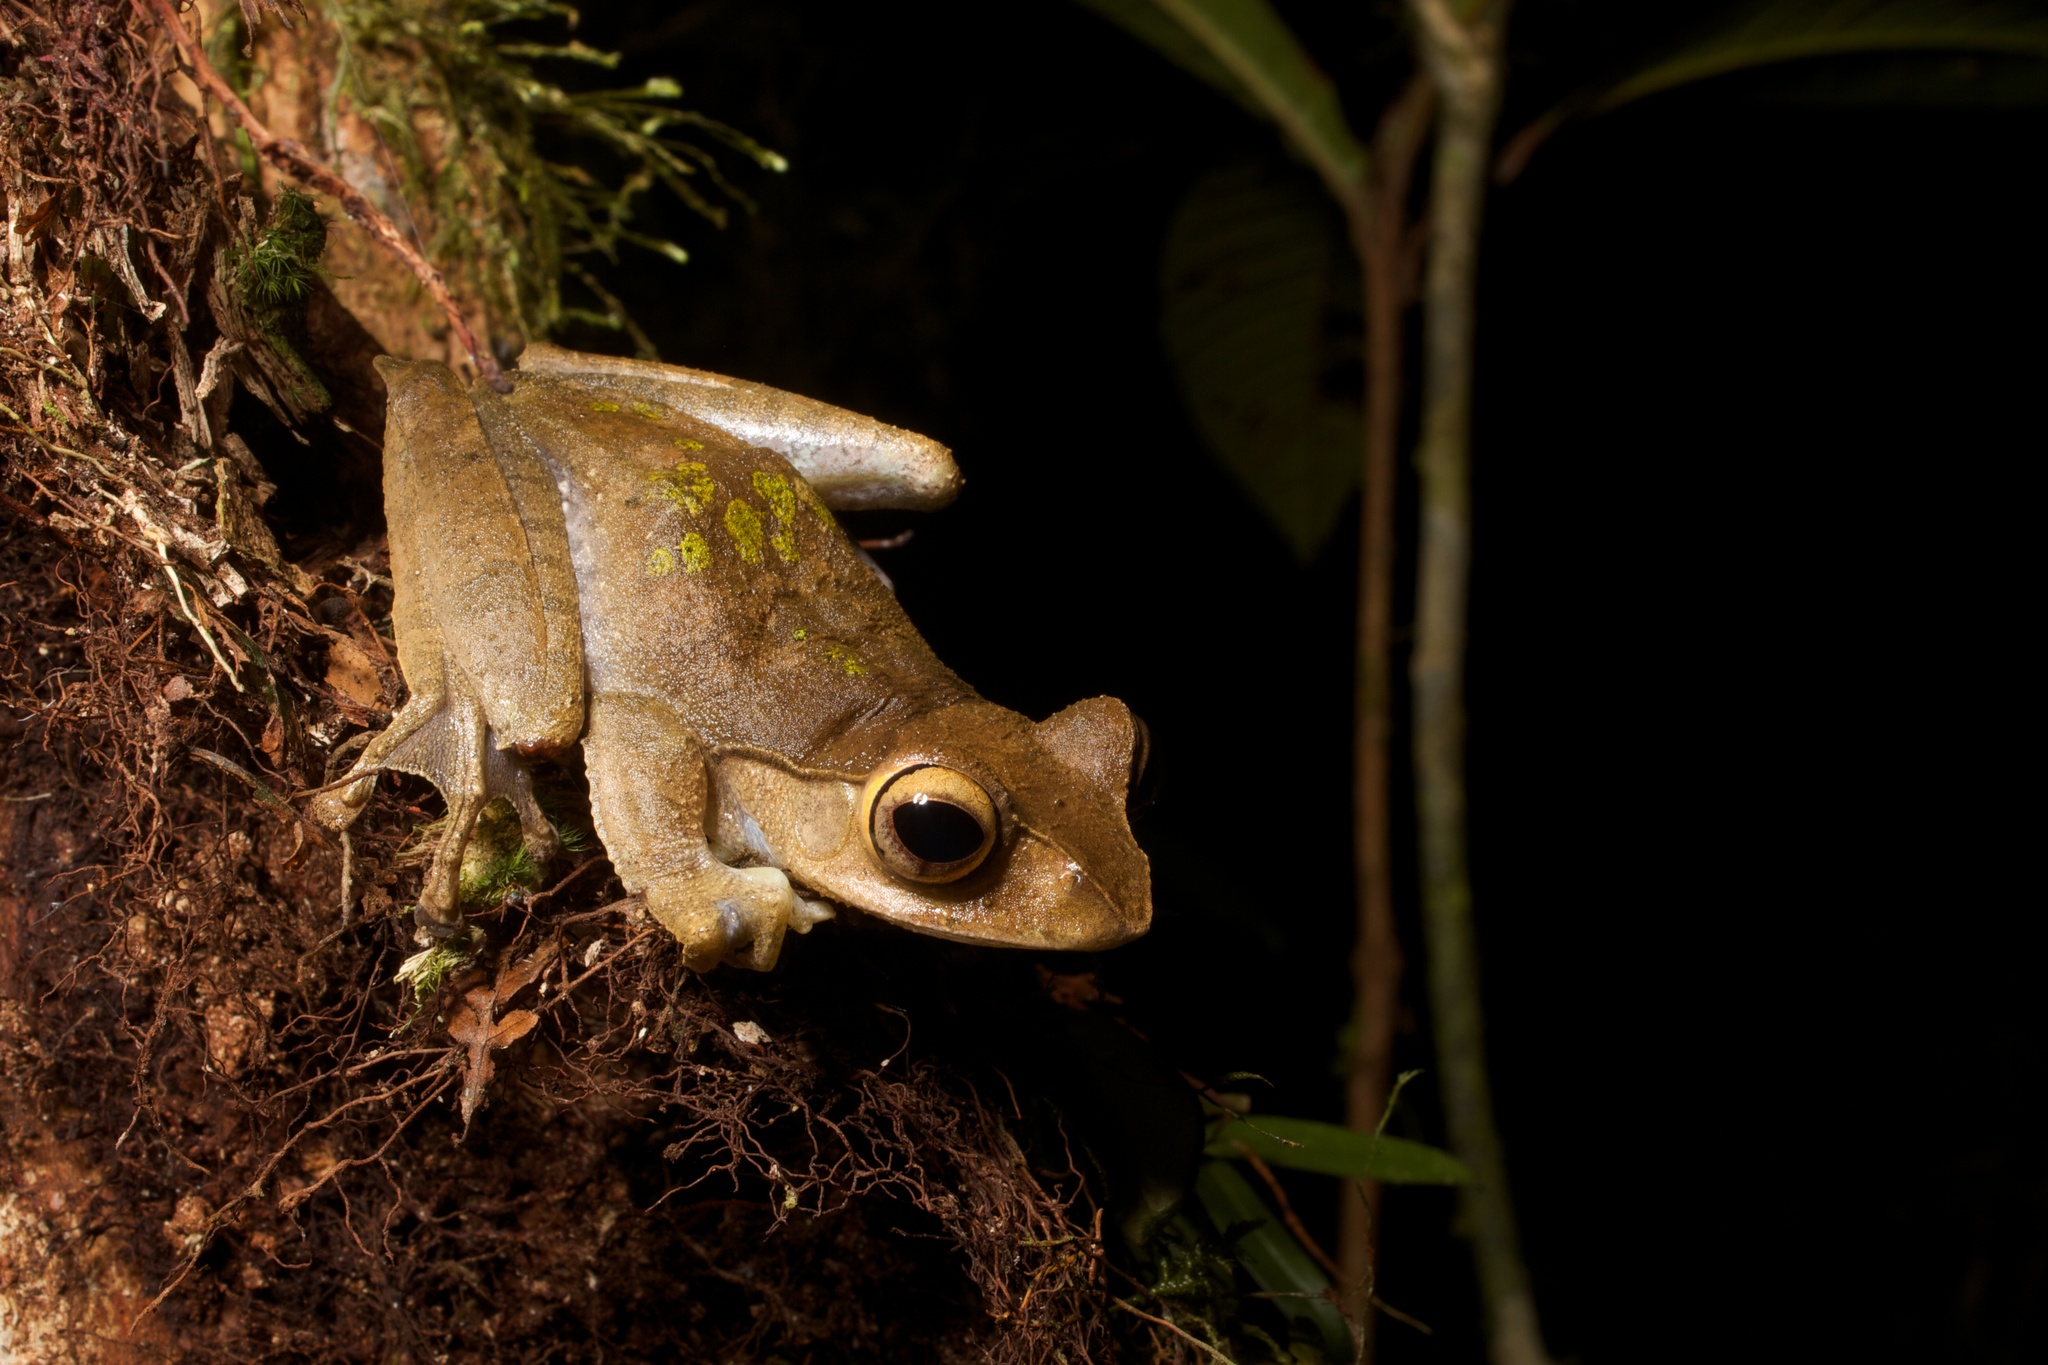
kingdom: Animalia
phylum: Chordata
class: Amphibia
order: Anura
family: Mantellidae
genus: Boophis
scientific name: Boophis madagascariensis
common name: Madagascar bright-eyed frog
